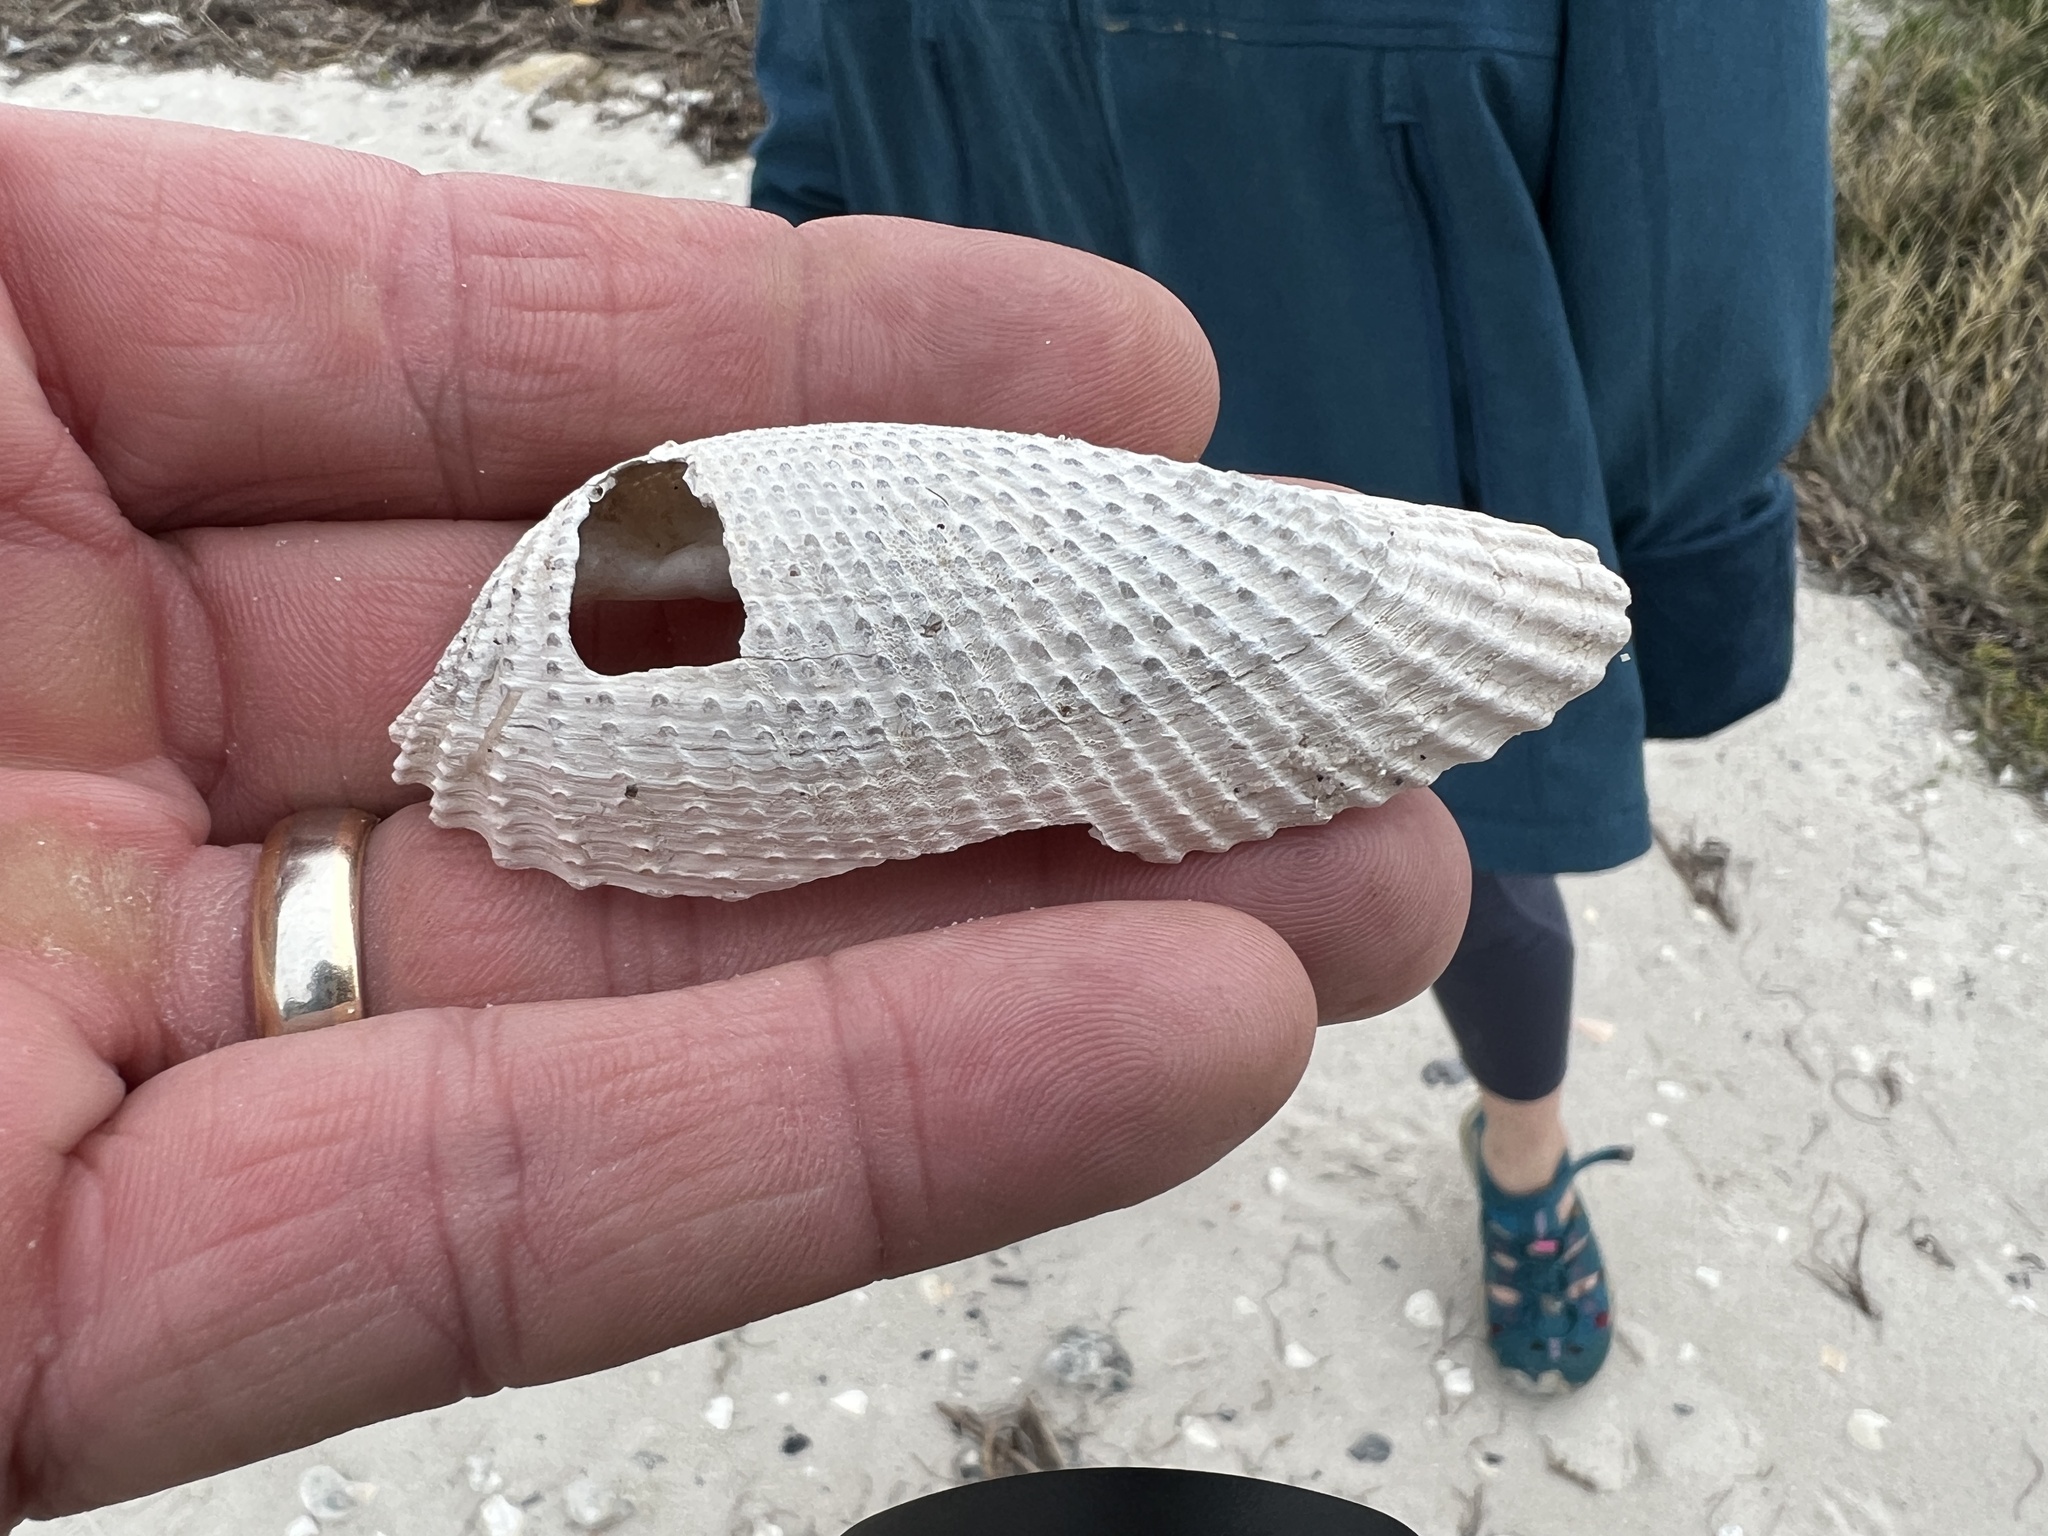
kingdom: Animalia
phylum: Mollusca
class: Bivalvia
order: Myida
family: Pholadidae
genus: Cyrtopleura
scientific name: Cyrtopleura costata
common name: Angel wing
